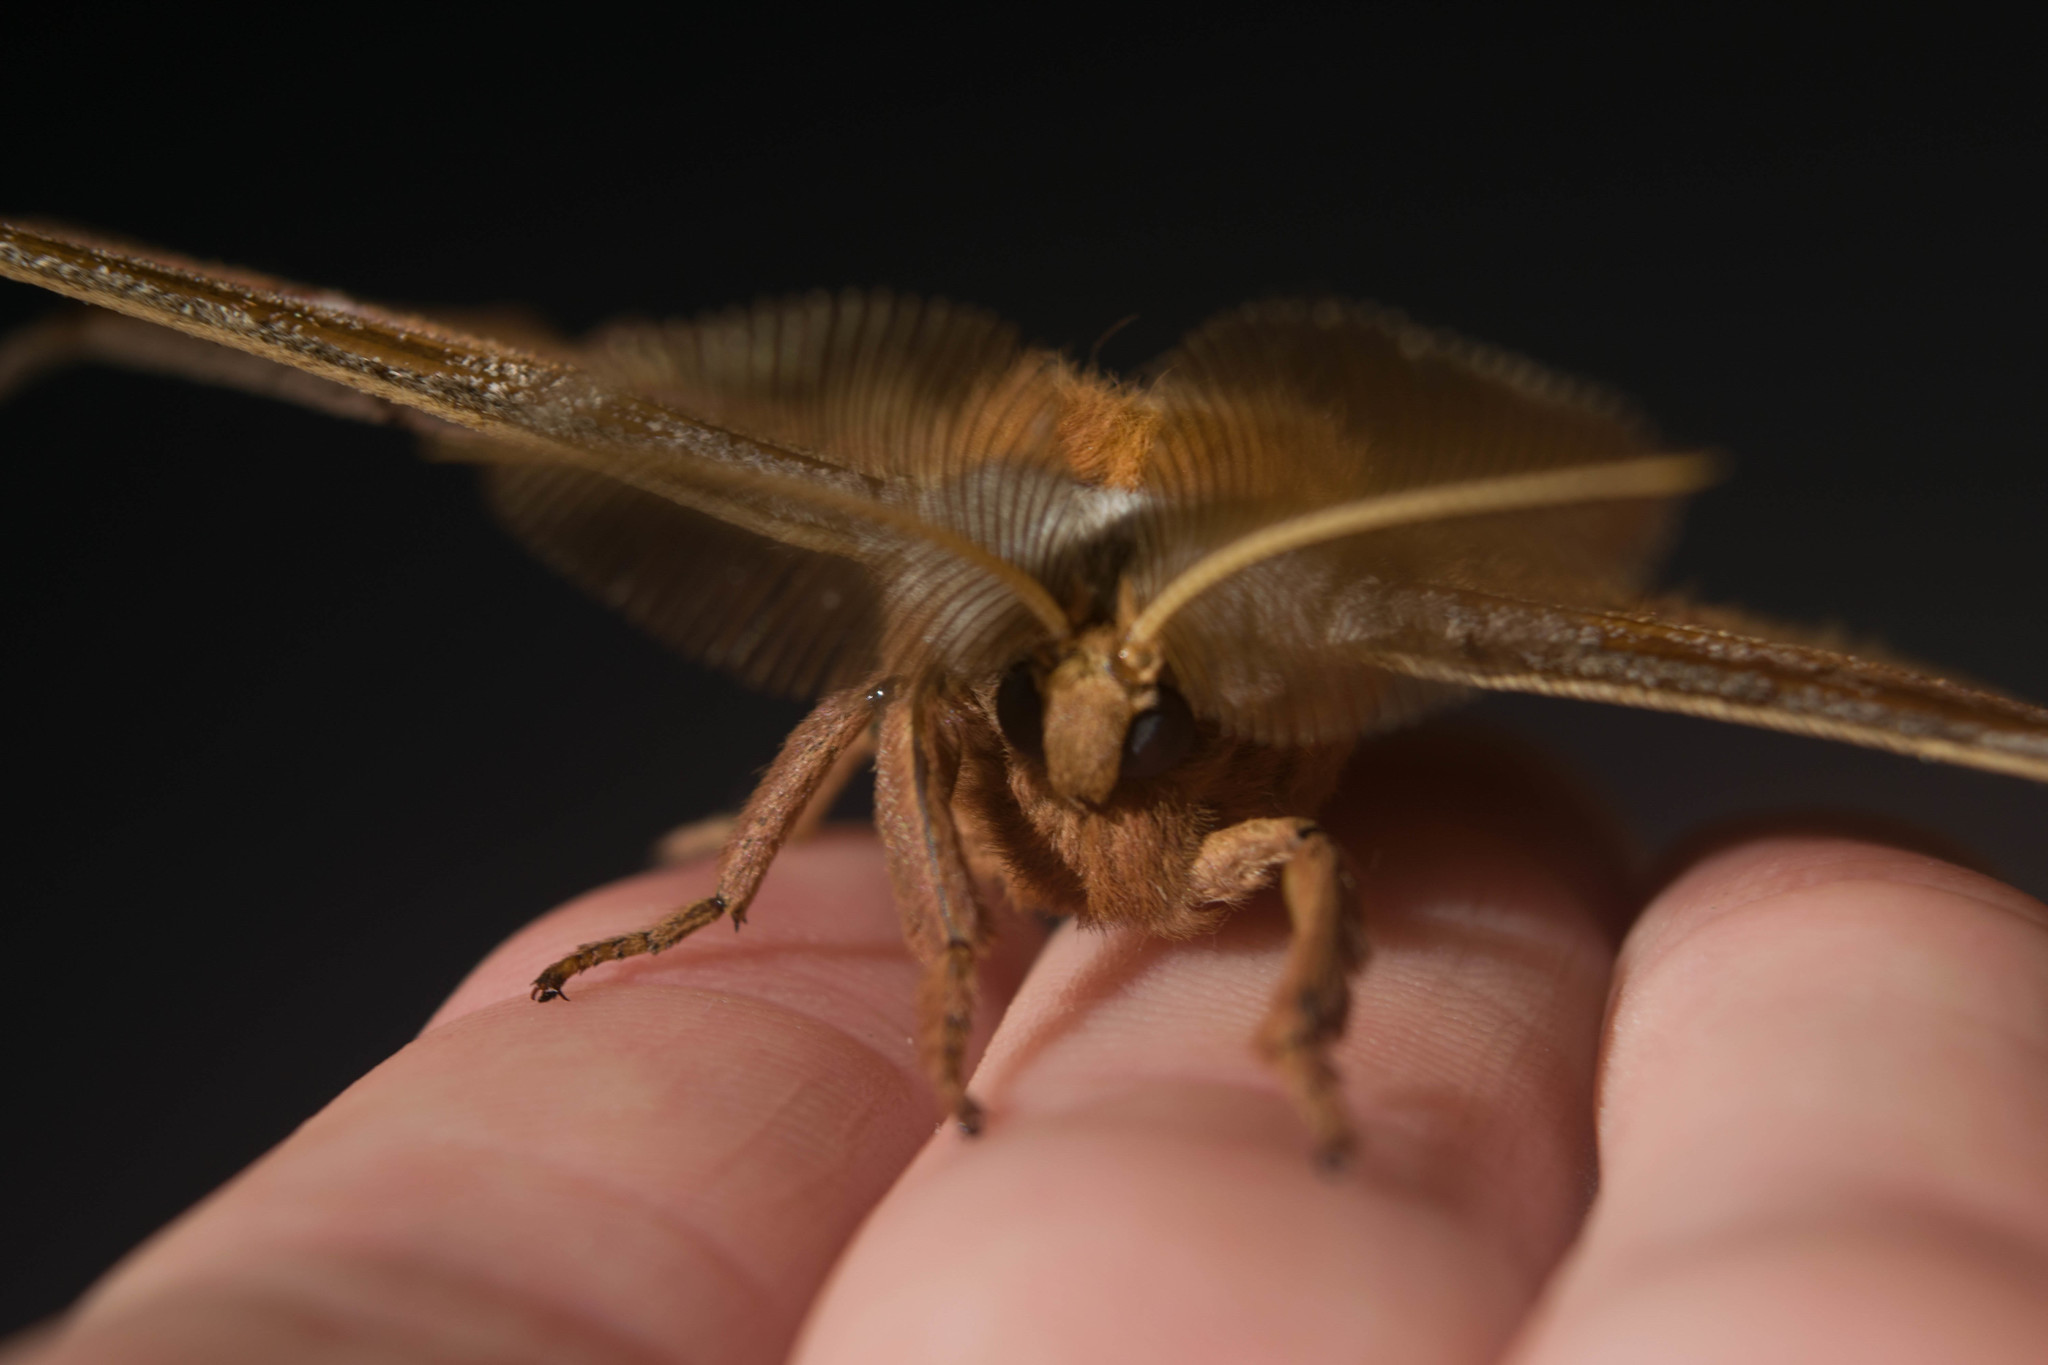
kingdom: Animalia
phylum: Arthropoda
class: Insecta
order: Lepidoptera
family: Saturniidae
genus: Antheraea
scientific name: Antheraea polyphemus
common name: Polyphemus moth
